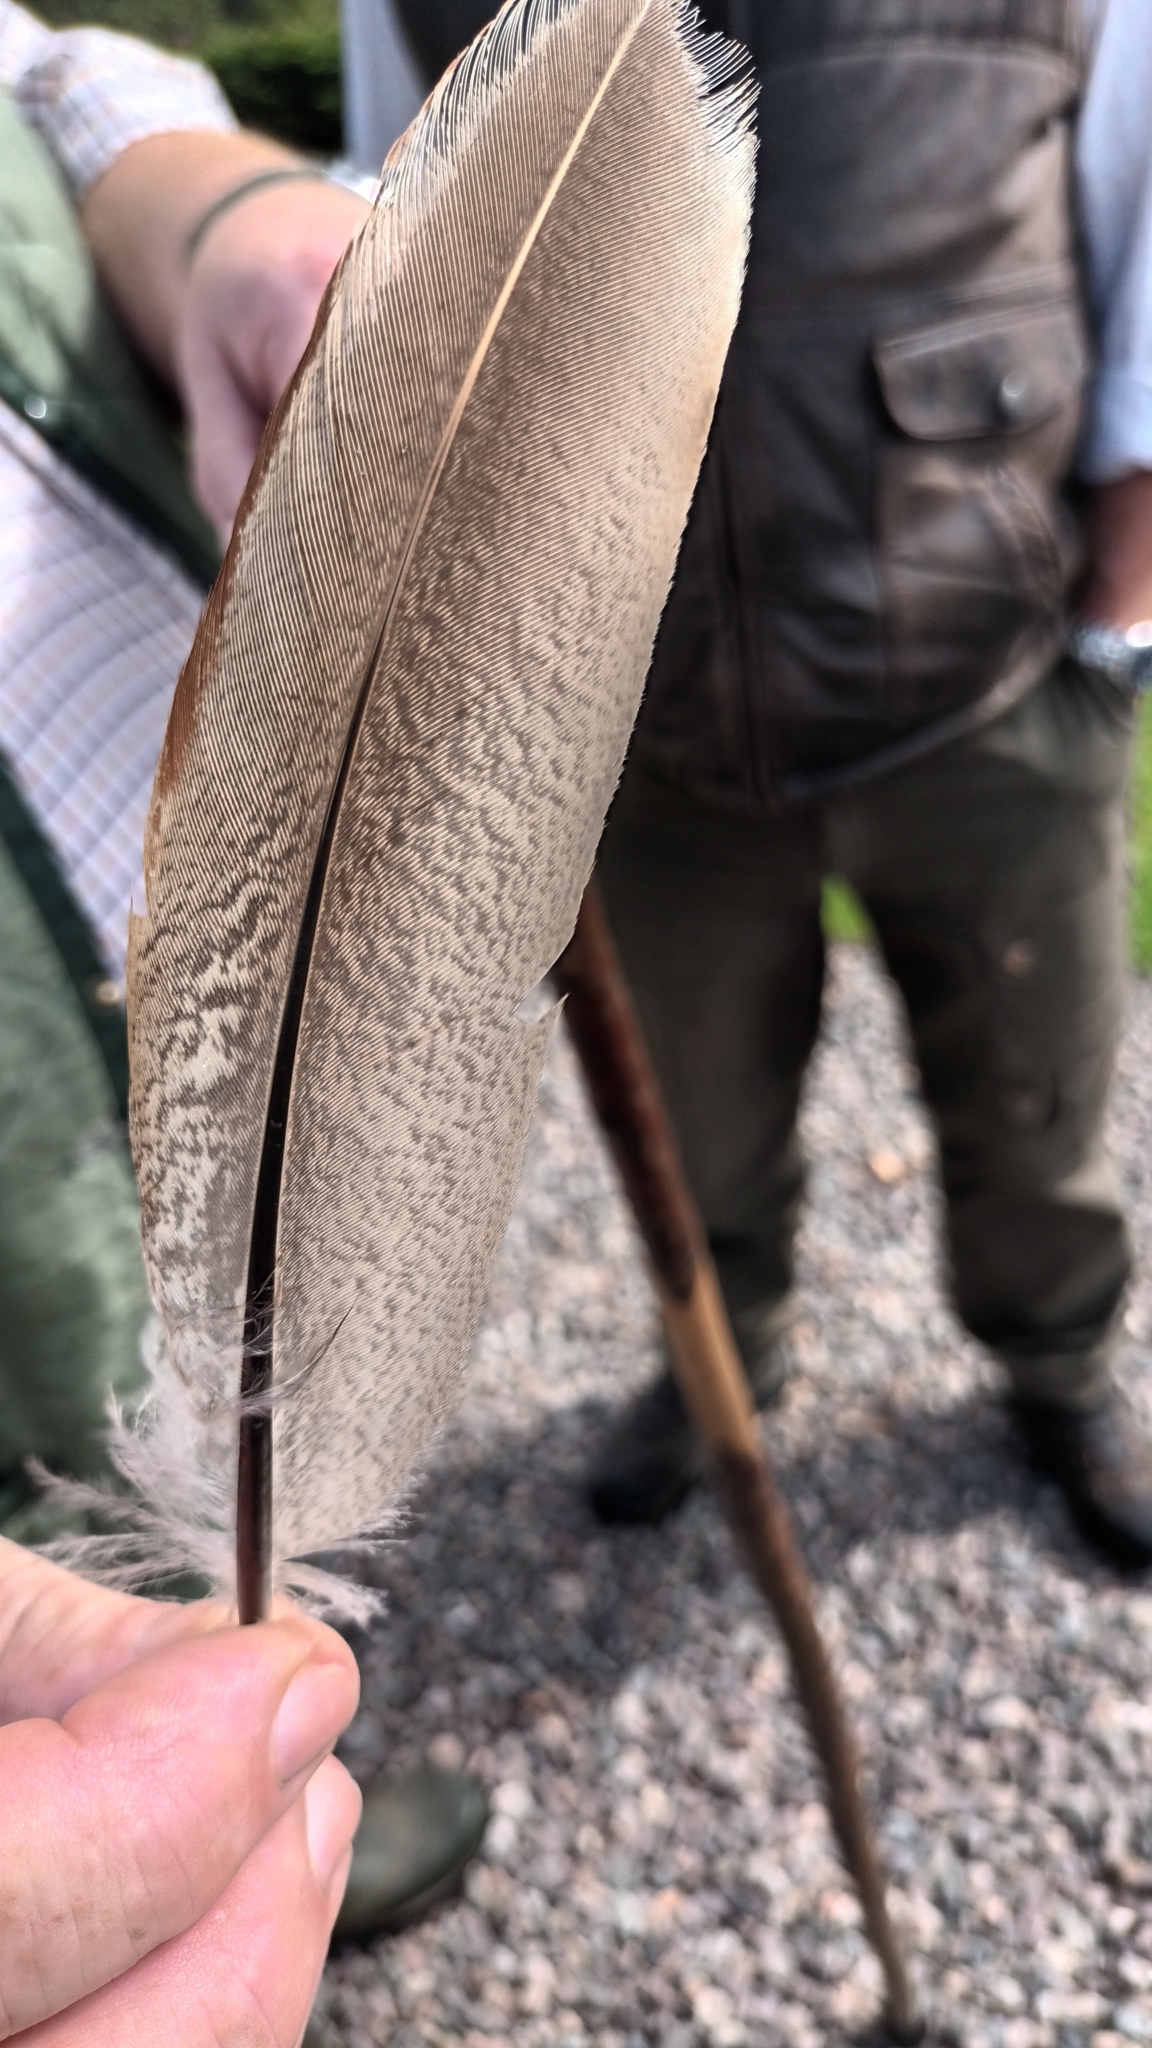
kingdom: Animalia
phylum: Chordata
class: Aves
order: Galliformes
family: Phasianidae
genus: Phasianus
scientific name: Phasianus colchicus
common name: Common pheasant
